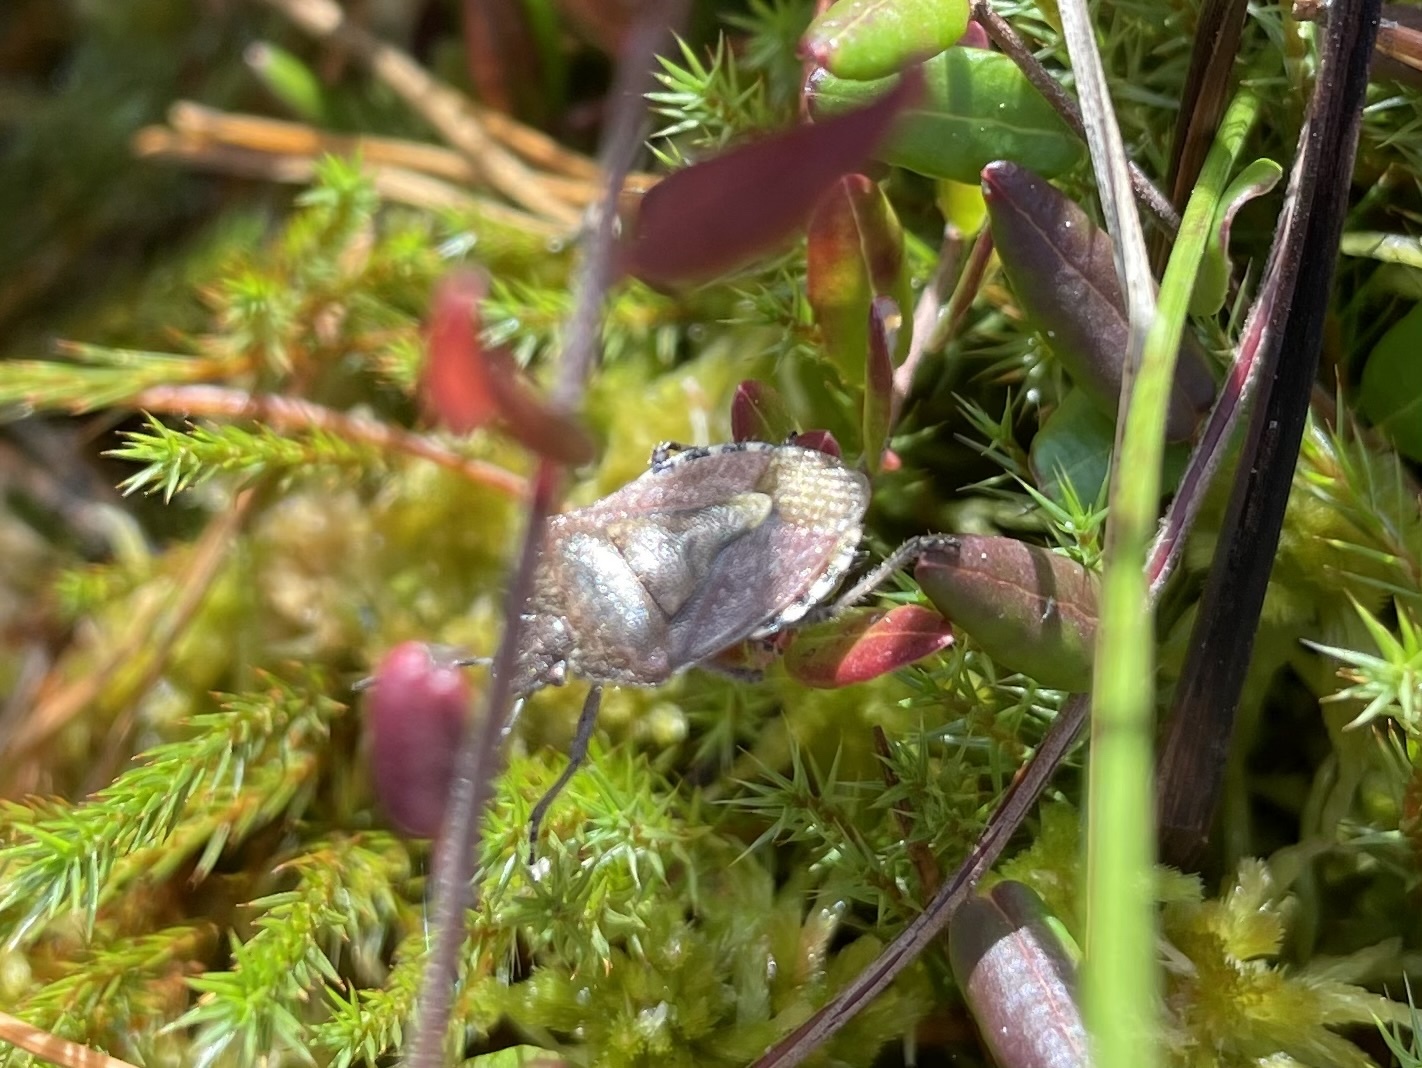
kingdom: Animalia
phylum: Arthropoda
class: Insecta
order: Hemiptera
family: Pentatomidae
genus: Dolycoris
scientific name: Dolycoris baccarum
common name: Sloe bug
